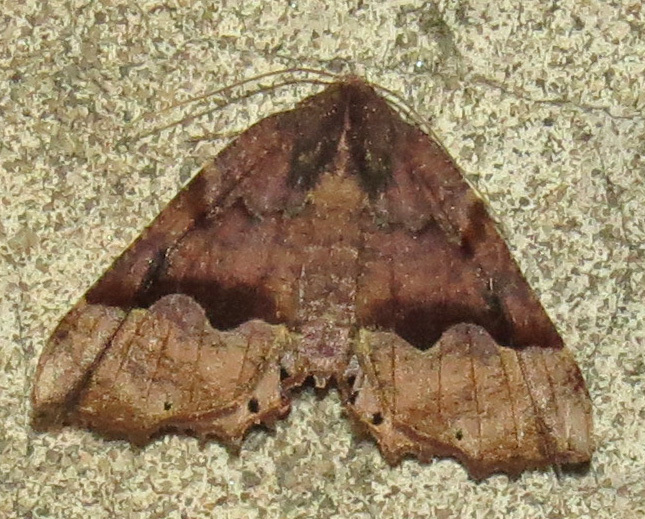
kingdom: Animalia
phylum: Arthropoda
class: Insecta
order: Lepidoptera
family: Geometridae
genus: Pero
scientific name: Pero ancetaria
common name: Hübner's pero
